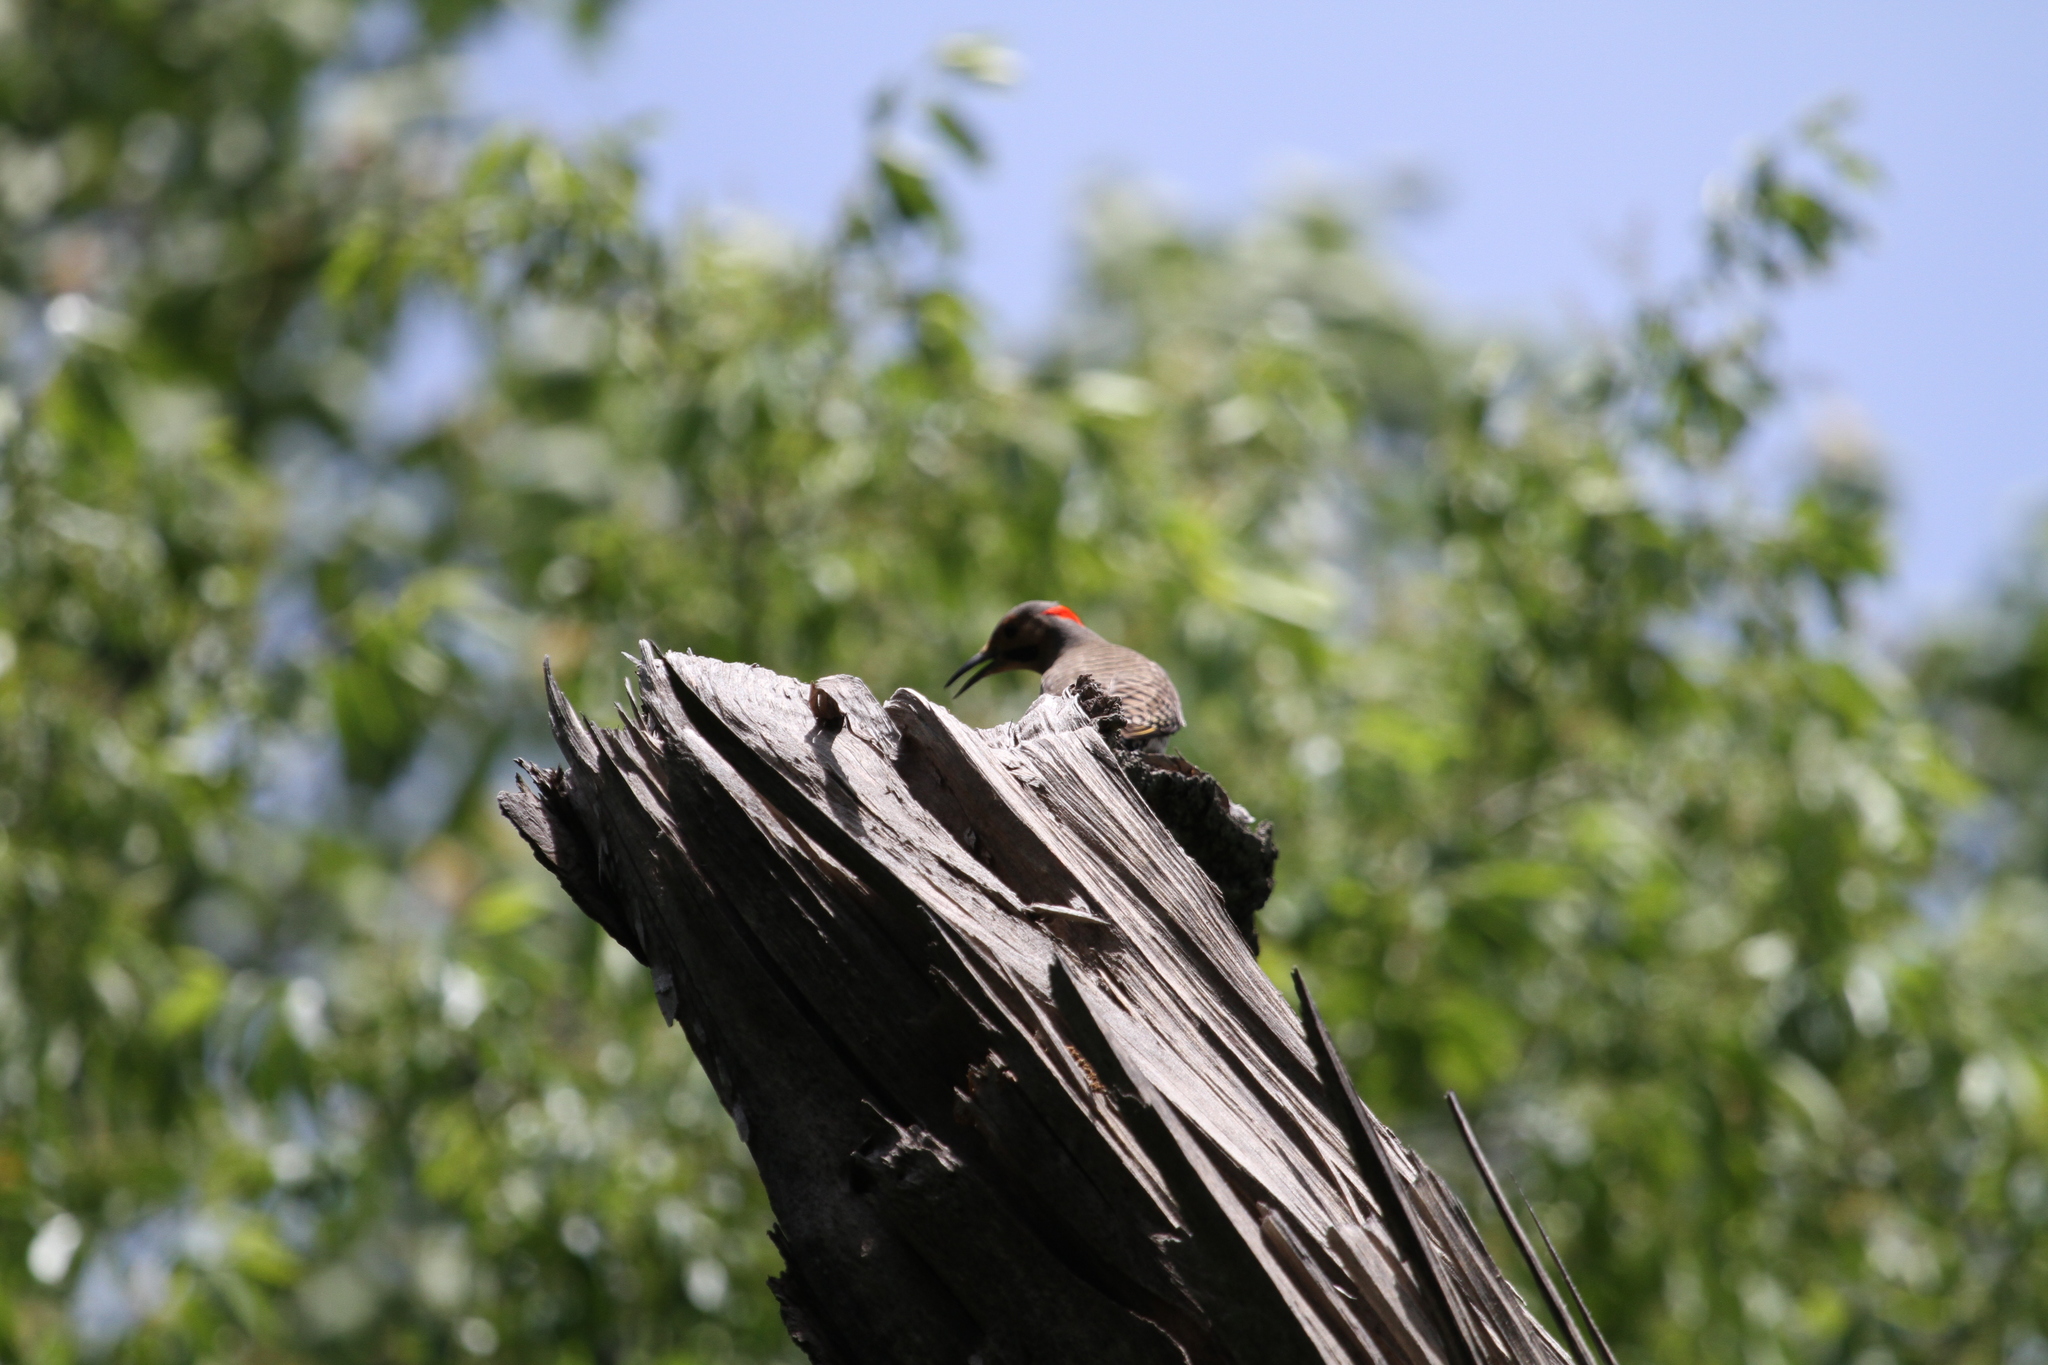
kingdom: Animalia
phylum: Chordata
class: Aves
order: Piciformes
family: Picidae
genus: Colaptes
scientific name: Colaptes auratus
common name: Northern flicker
